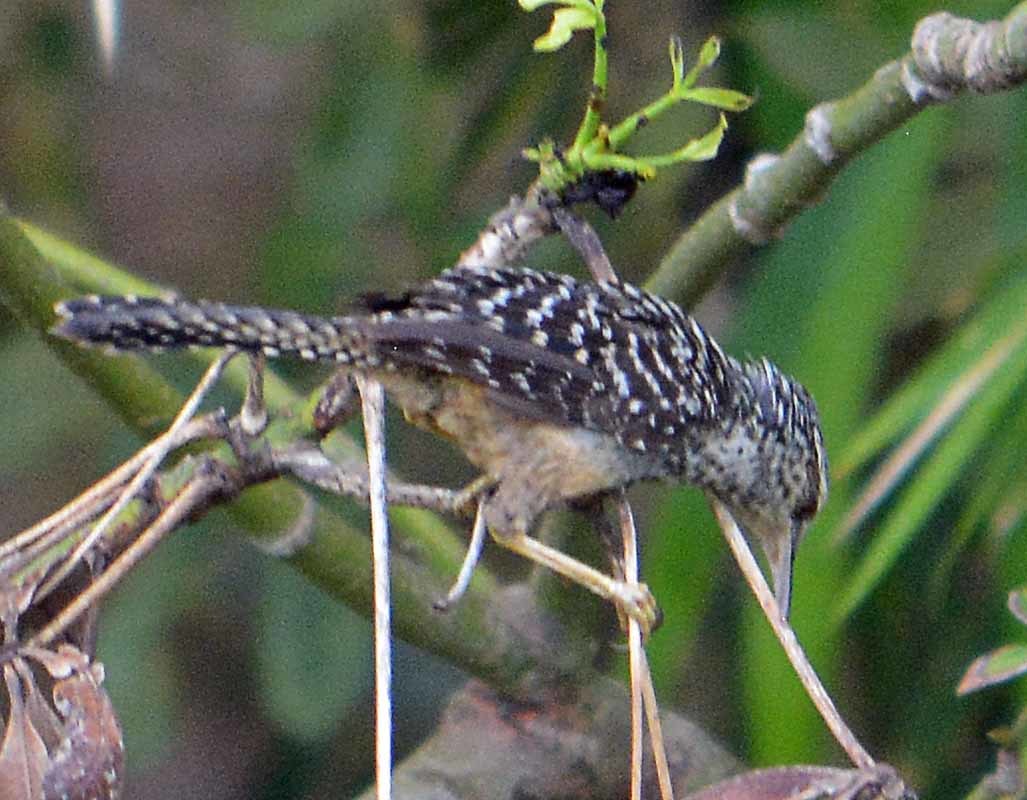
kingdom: Animalia
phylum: Chordata
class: Aves
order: Passeriformes
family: Troglodytidae
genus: Campylorhynchus
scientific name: Campylorhynchus zonatus
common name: Band-backed wren
